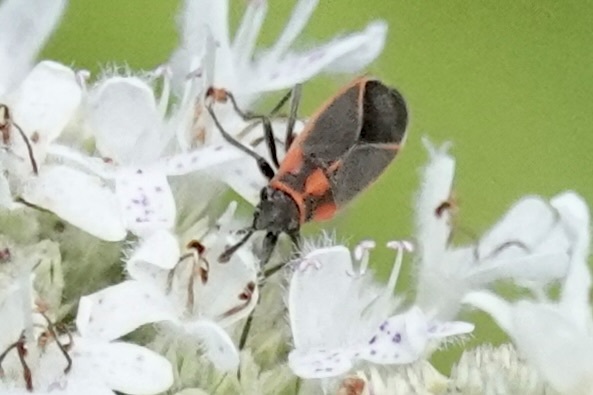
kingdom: Animalia
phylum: Arthropoda
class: Insecta
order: Hemiptera
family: Lygaeidae
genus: Ochrimnus
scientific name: Ochrimnus lineoloides
